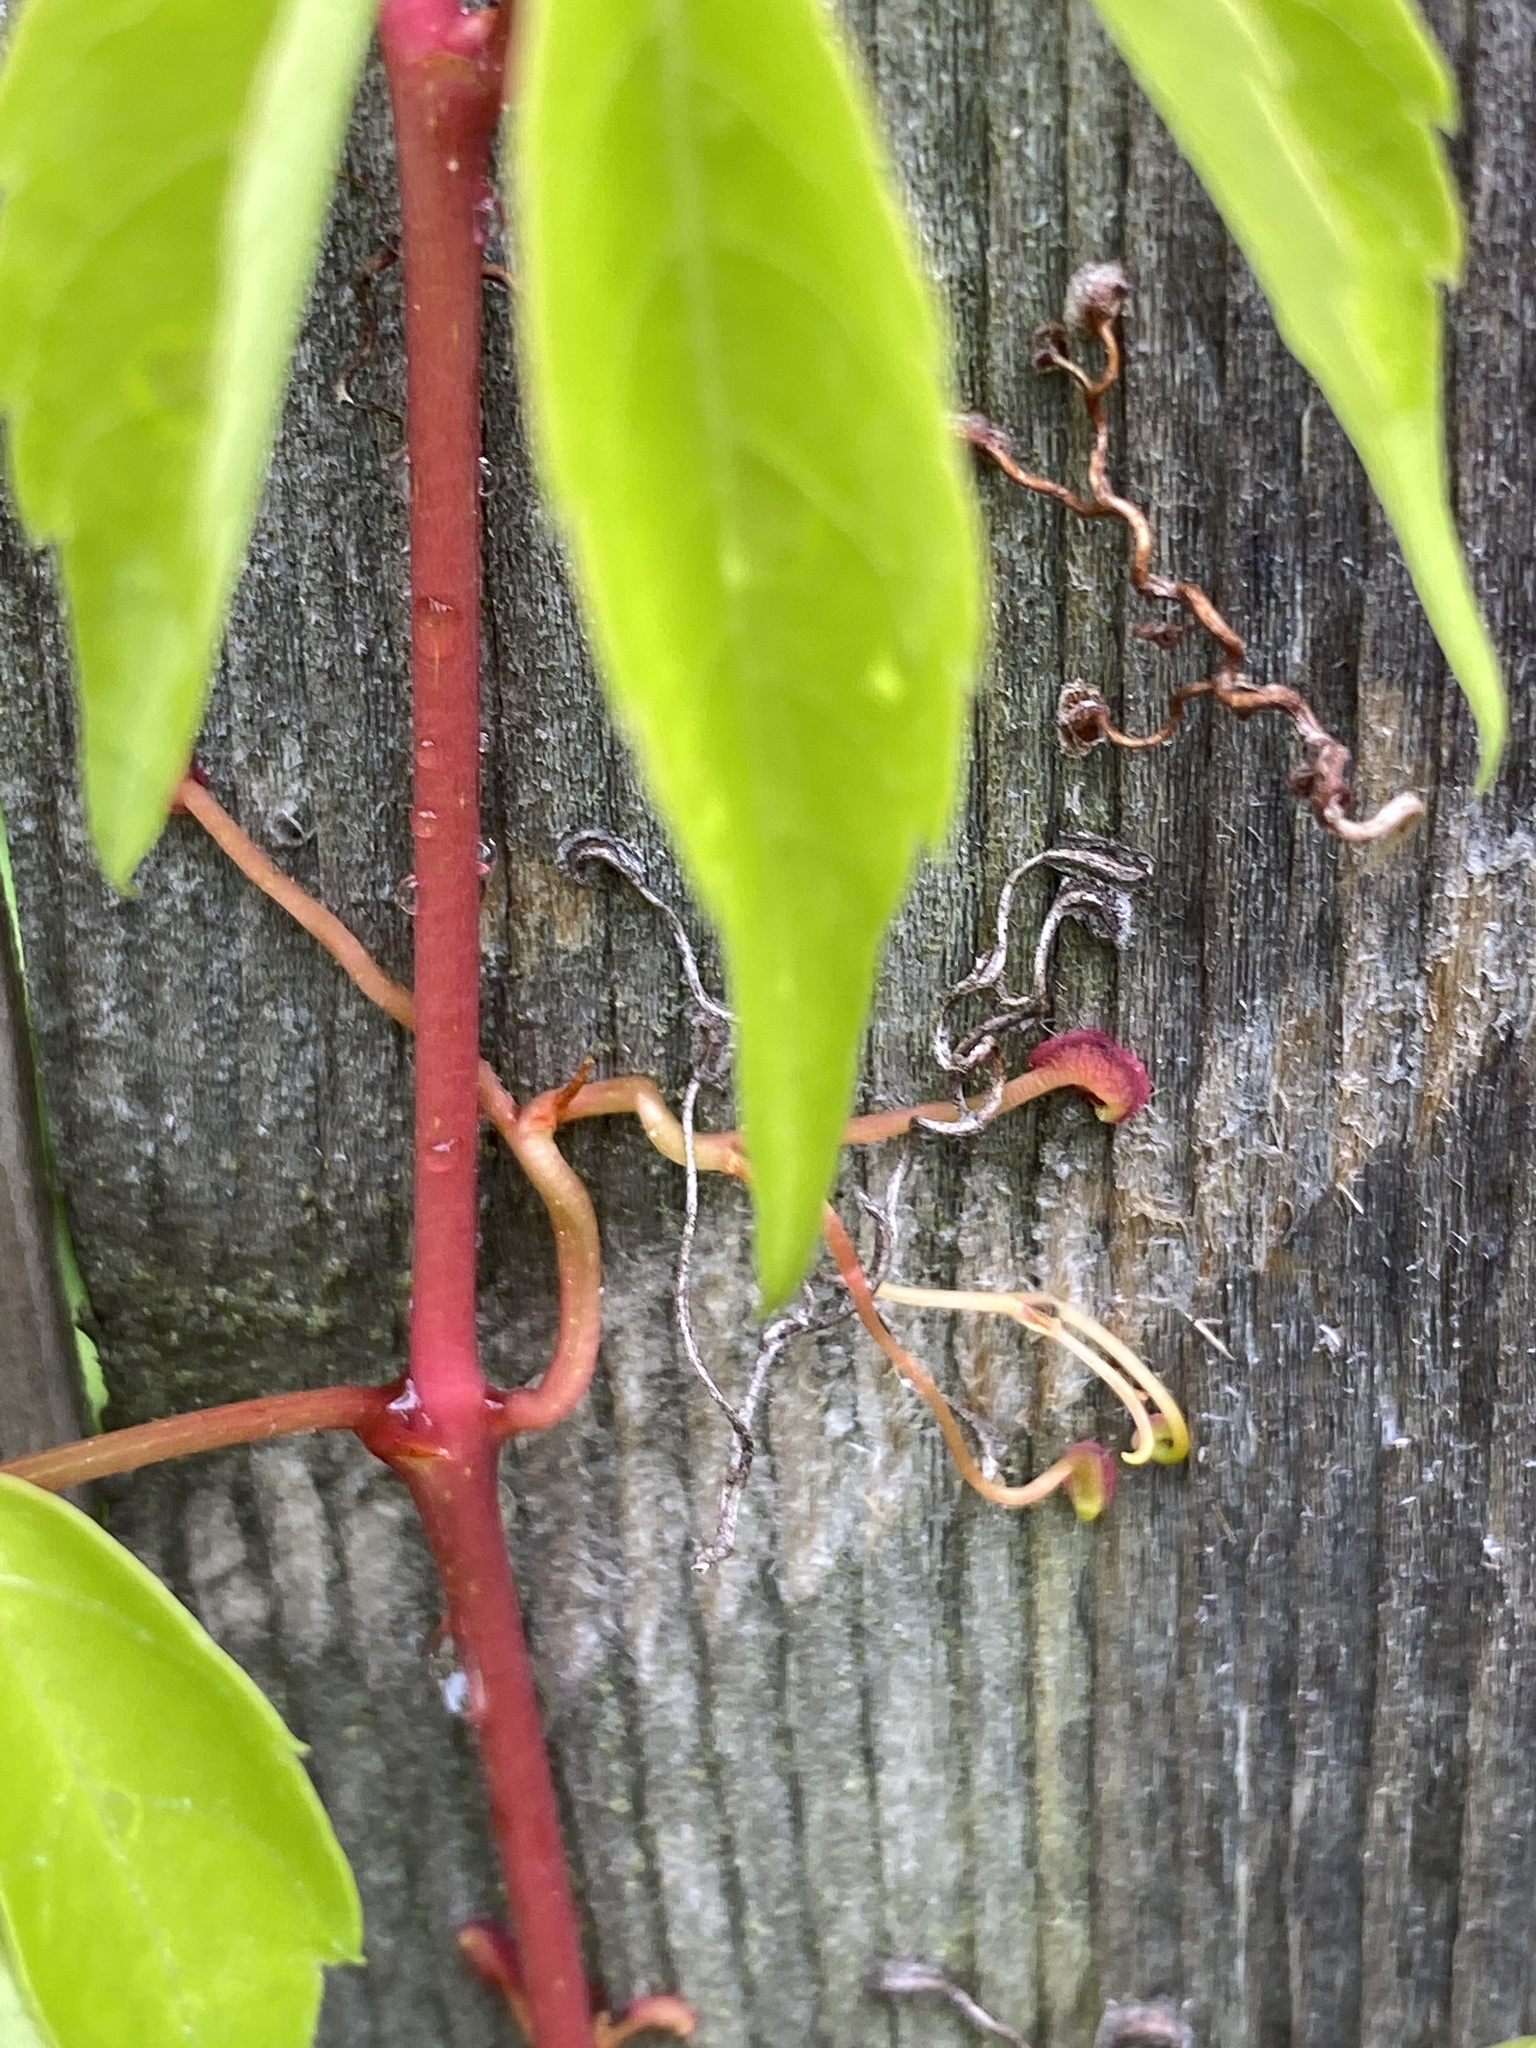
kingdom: Plantae
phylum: Tracheophyta
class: Magnoliopsida
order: Vitales
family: Vitaceae
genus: Parthenocissus
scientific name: Parthenocissus quinquefolia
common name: Virginia-creeper
